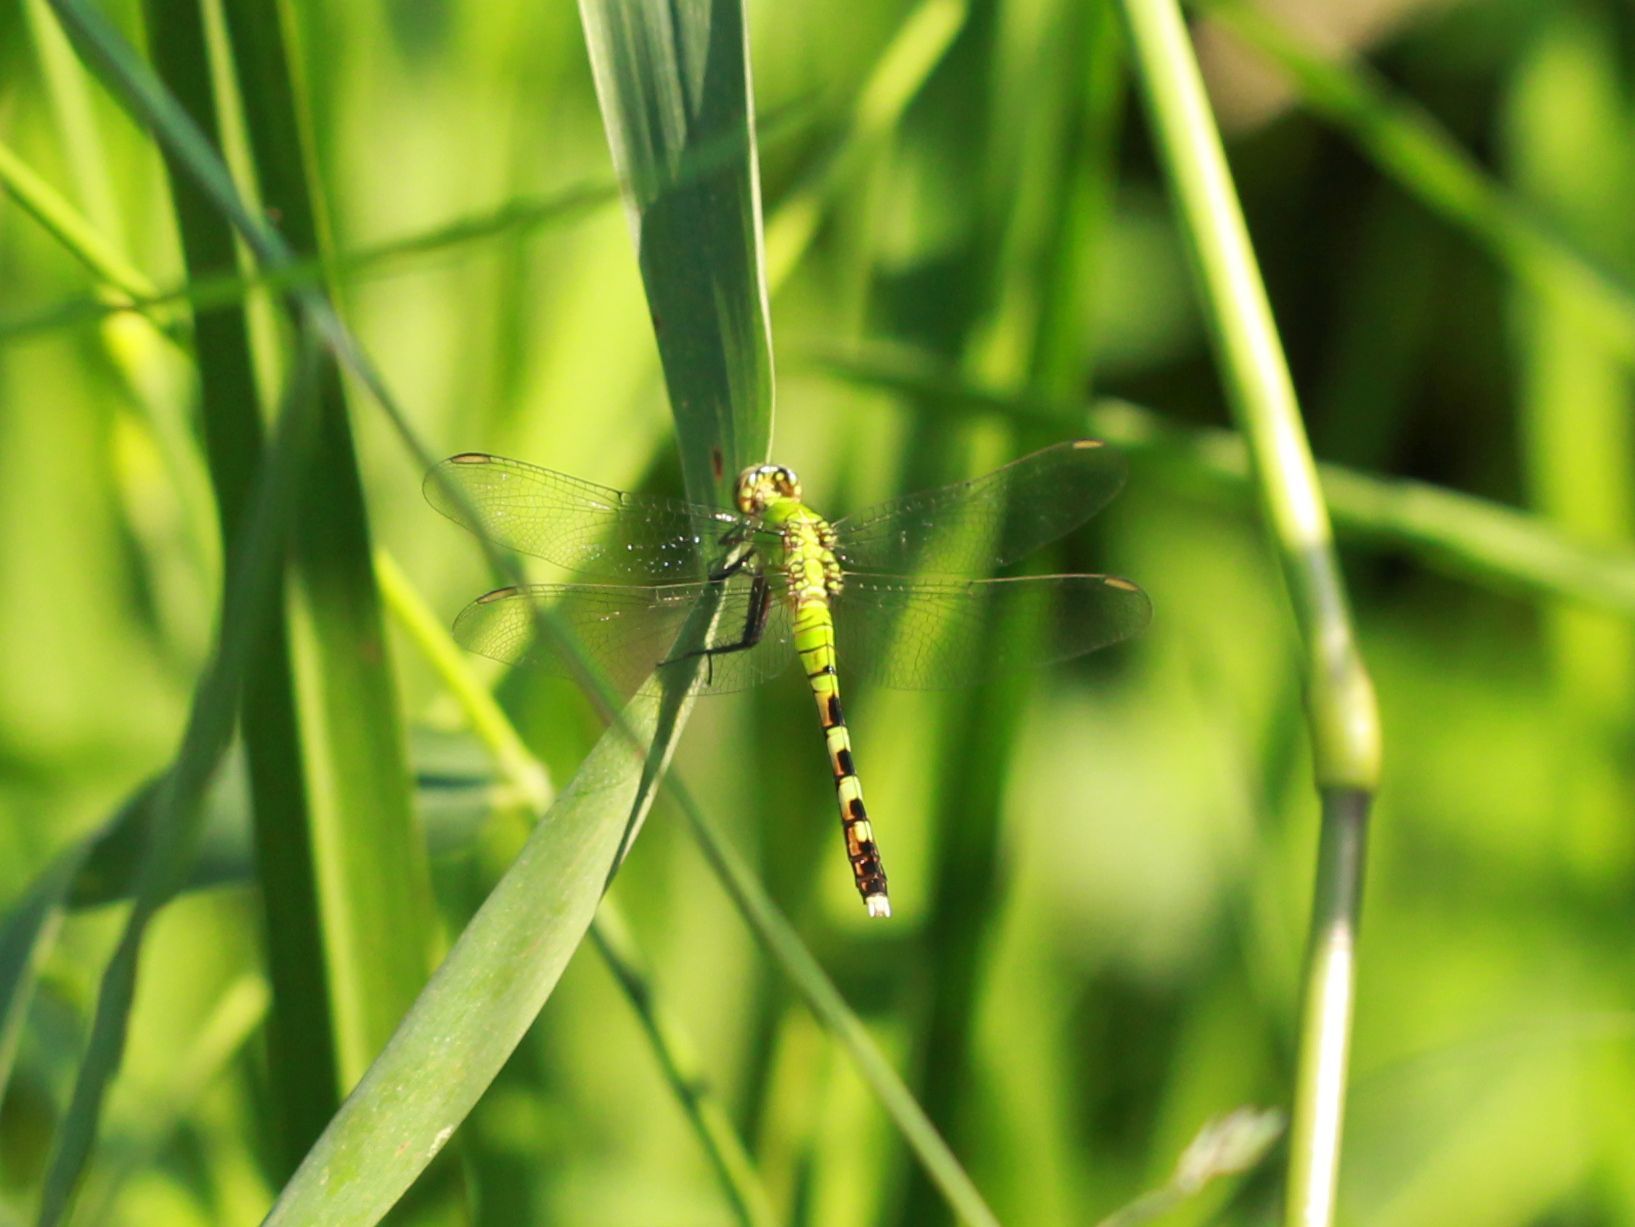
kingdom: Animalia
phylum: Arthropoda
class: Insecta
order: Odonata
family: Libellulidae
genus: Erythemis
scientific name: Erythemis simplicicollis
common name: Eastern pondhawk
